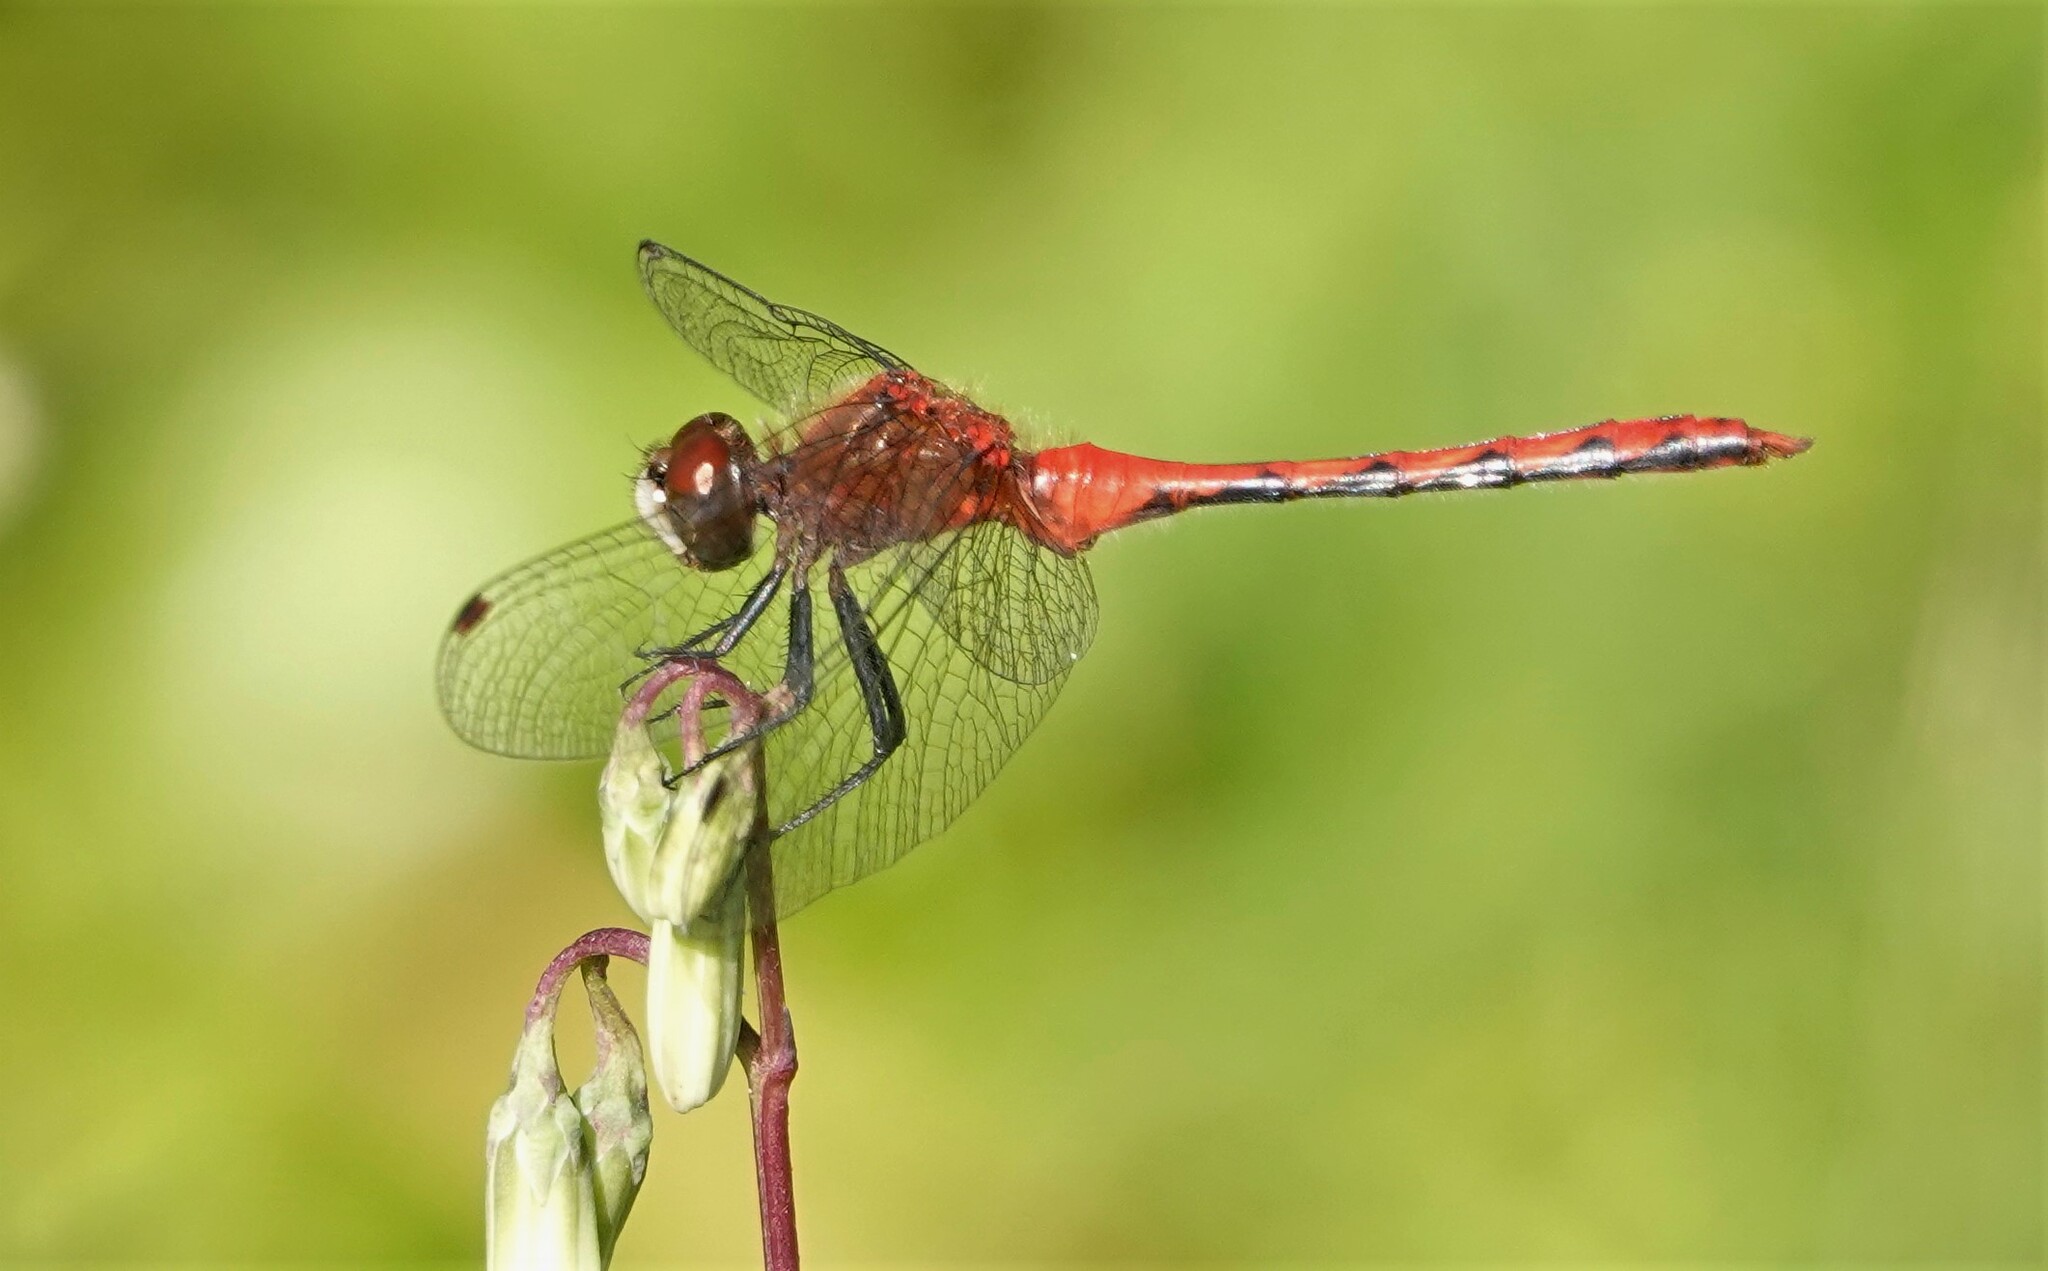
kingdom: Animalia
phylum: Arthropoda
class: Insecta
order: Odonata
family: Libellulidae
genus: Sympetrum
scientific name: Sympetrum obtrusum
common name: White-faced meadowhawk
